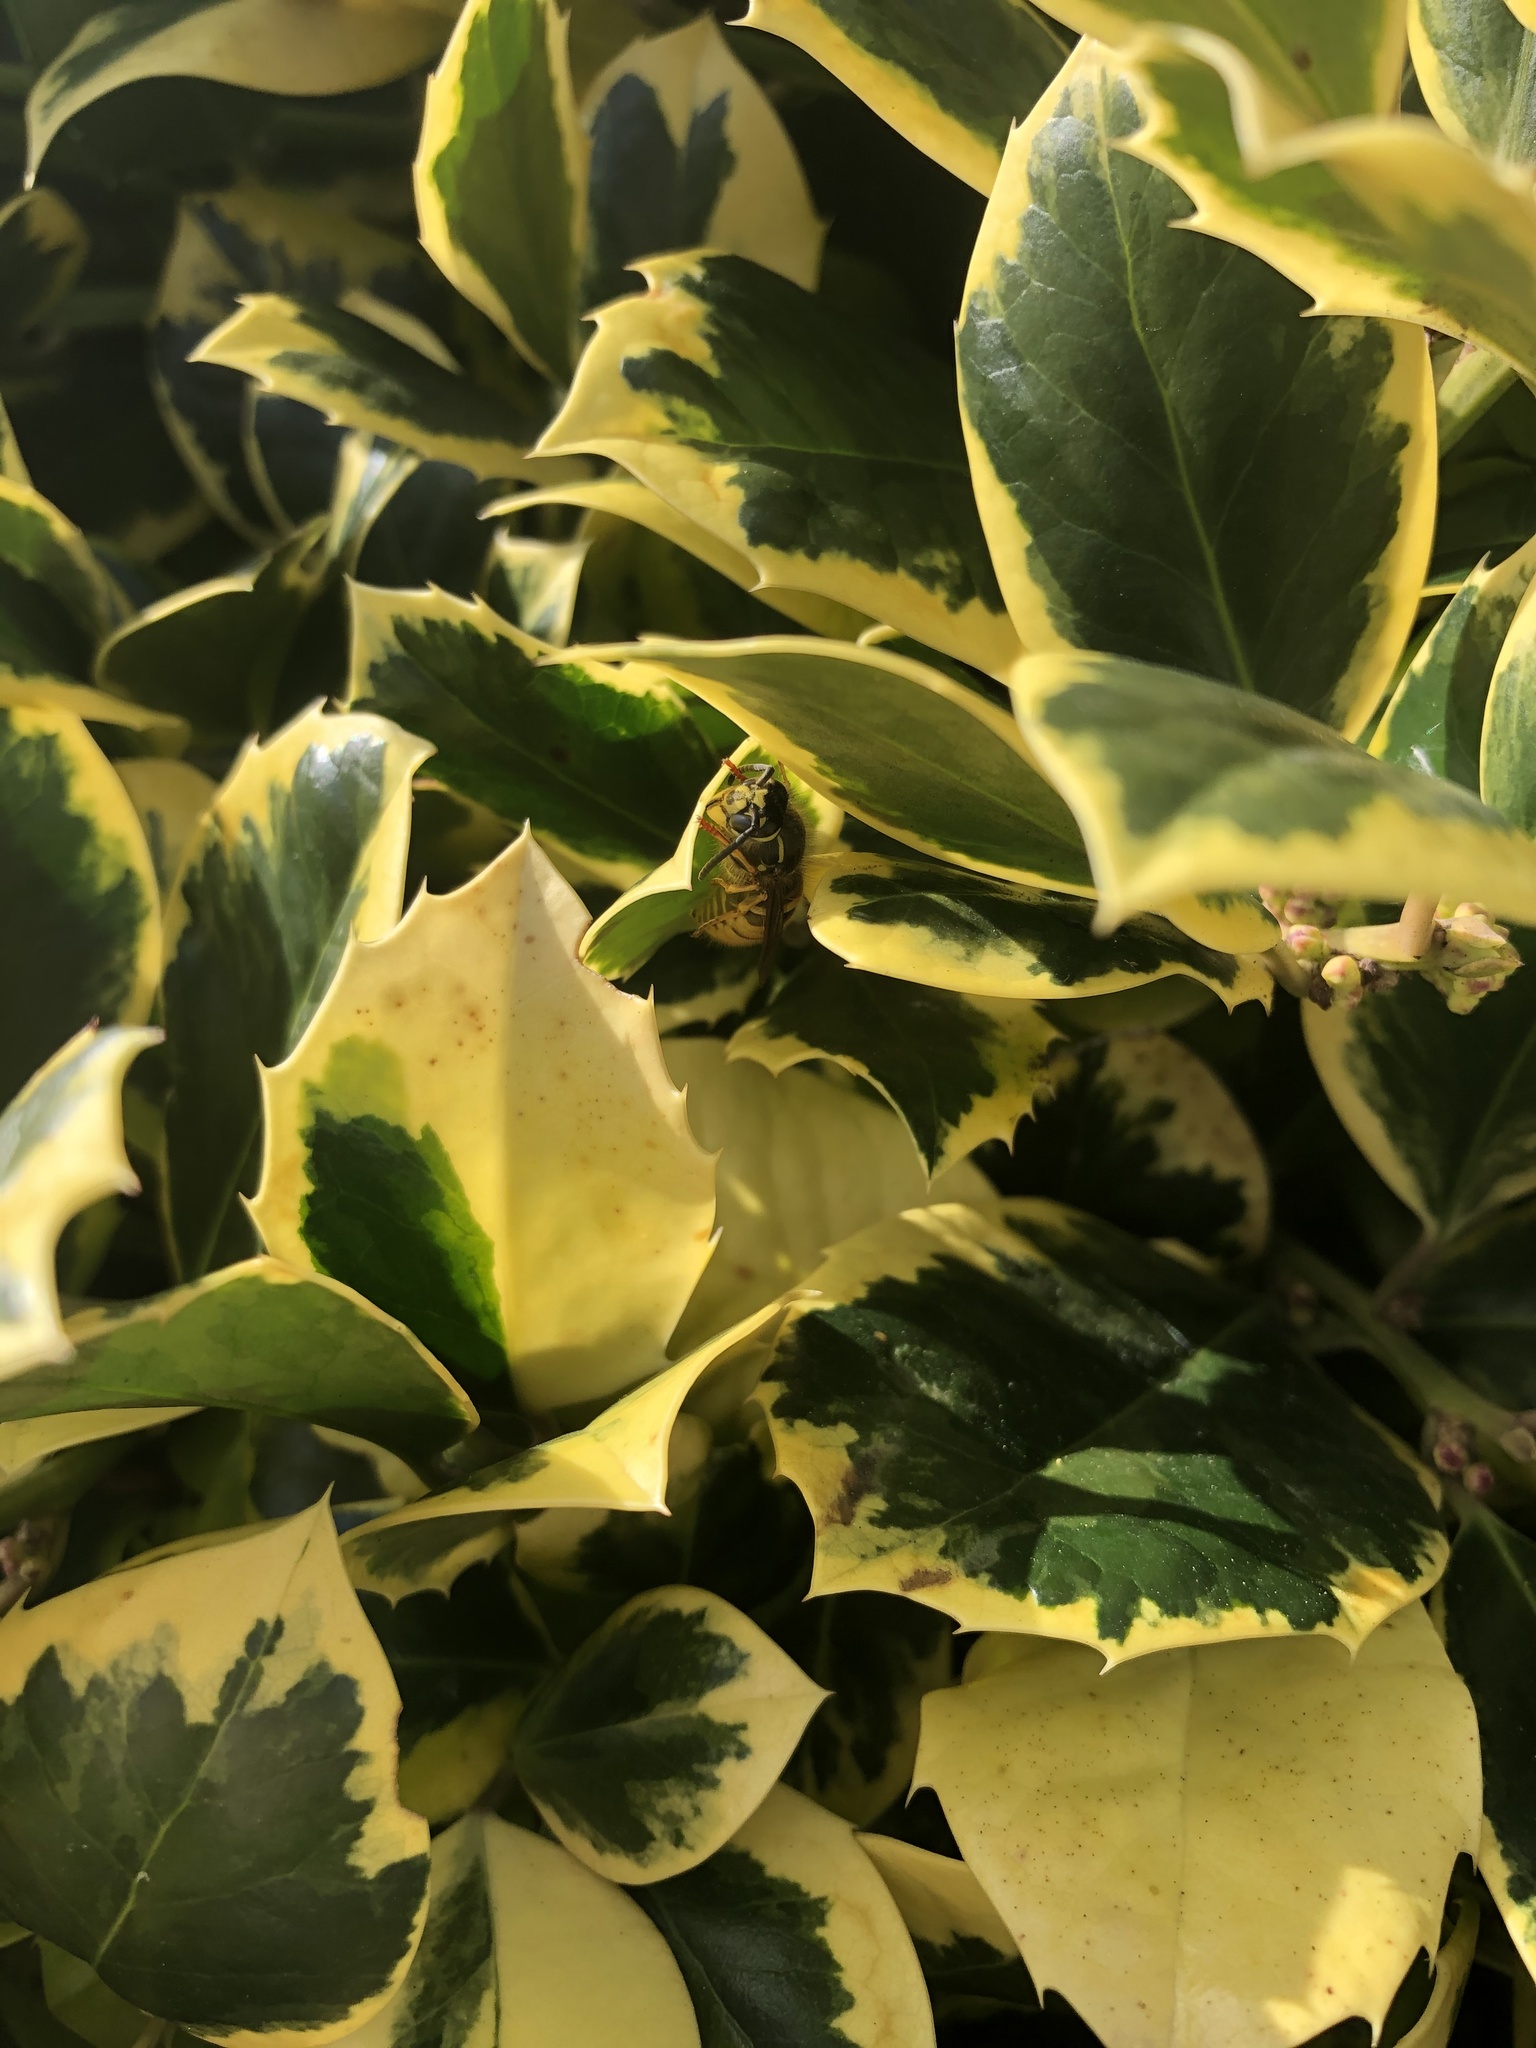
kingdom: Animalia
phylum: Arthropoda
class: Insecta
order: Hymenoptera
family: Vespidae
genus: Vespula
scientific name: Vespula vulgaris
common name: Common wasp
